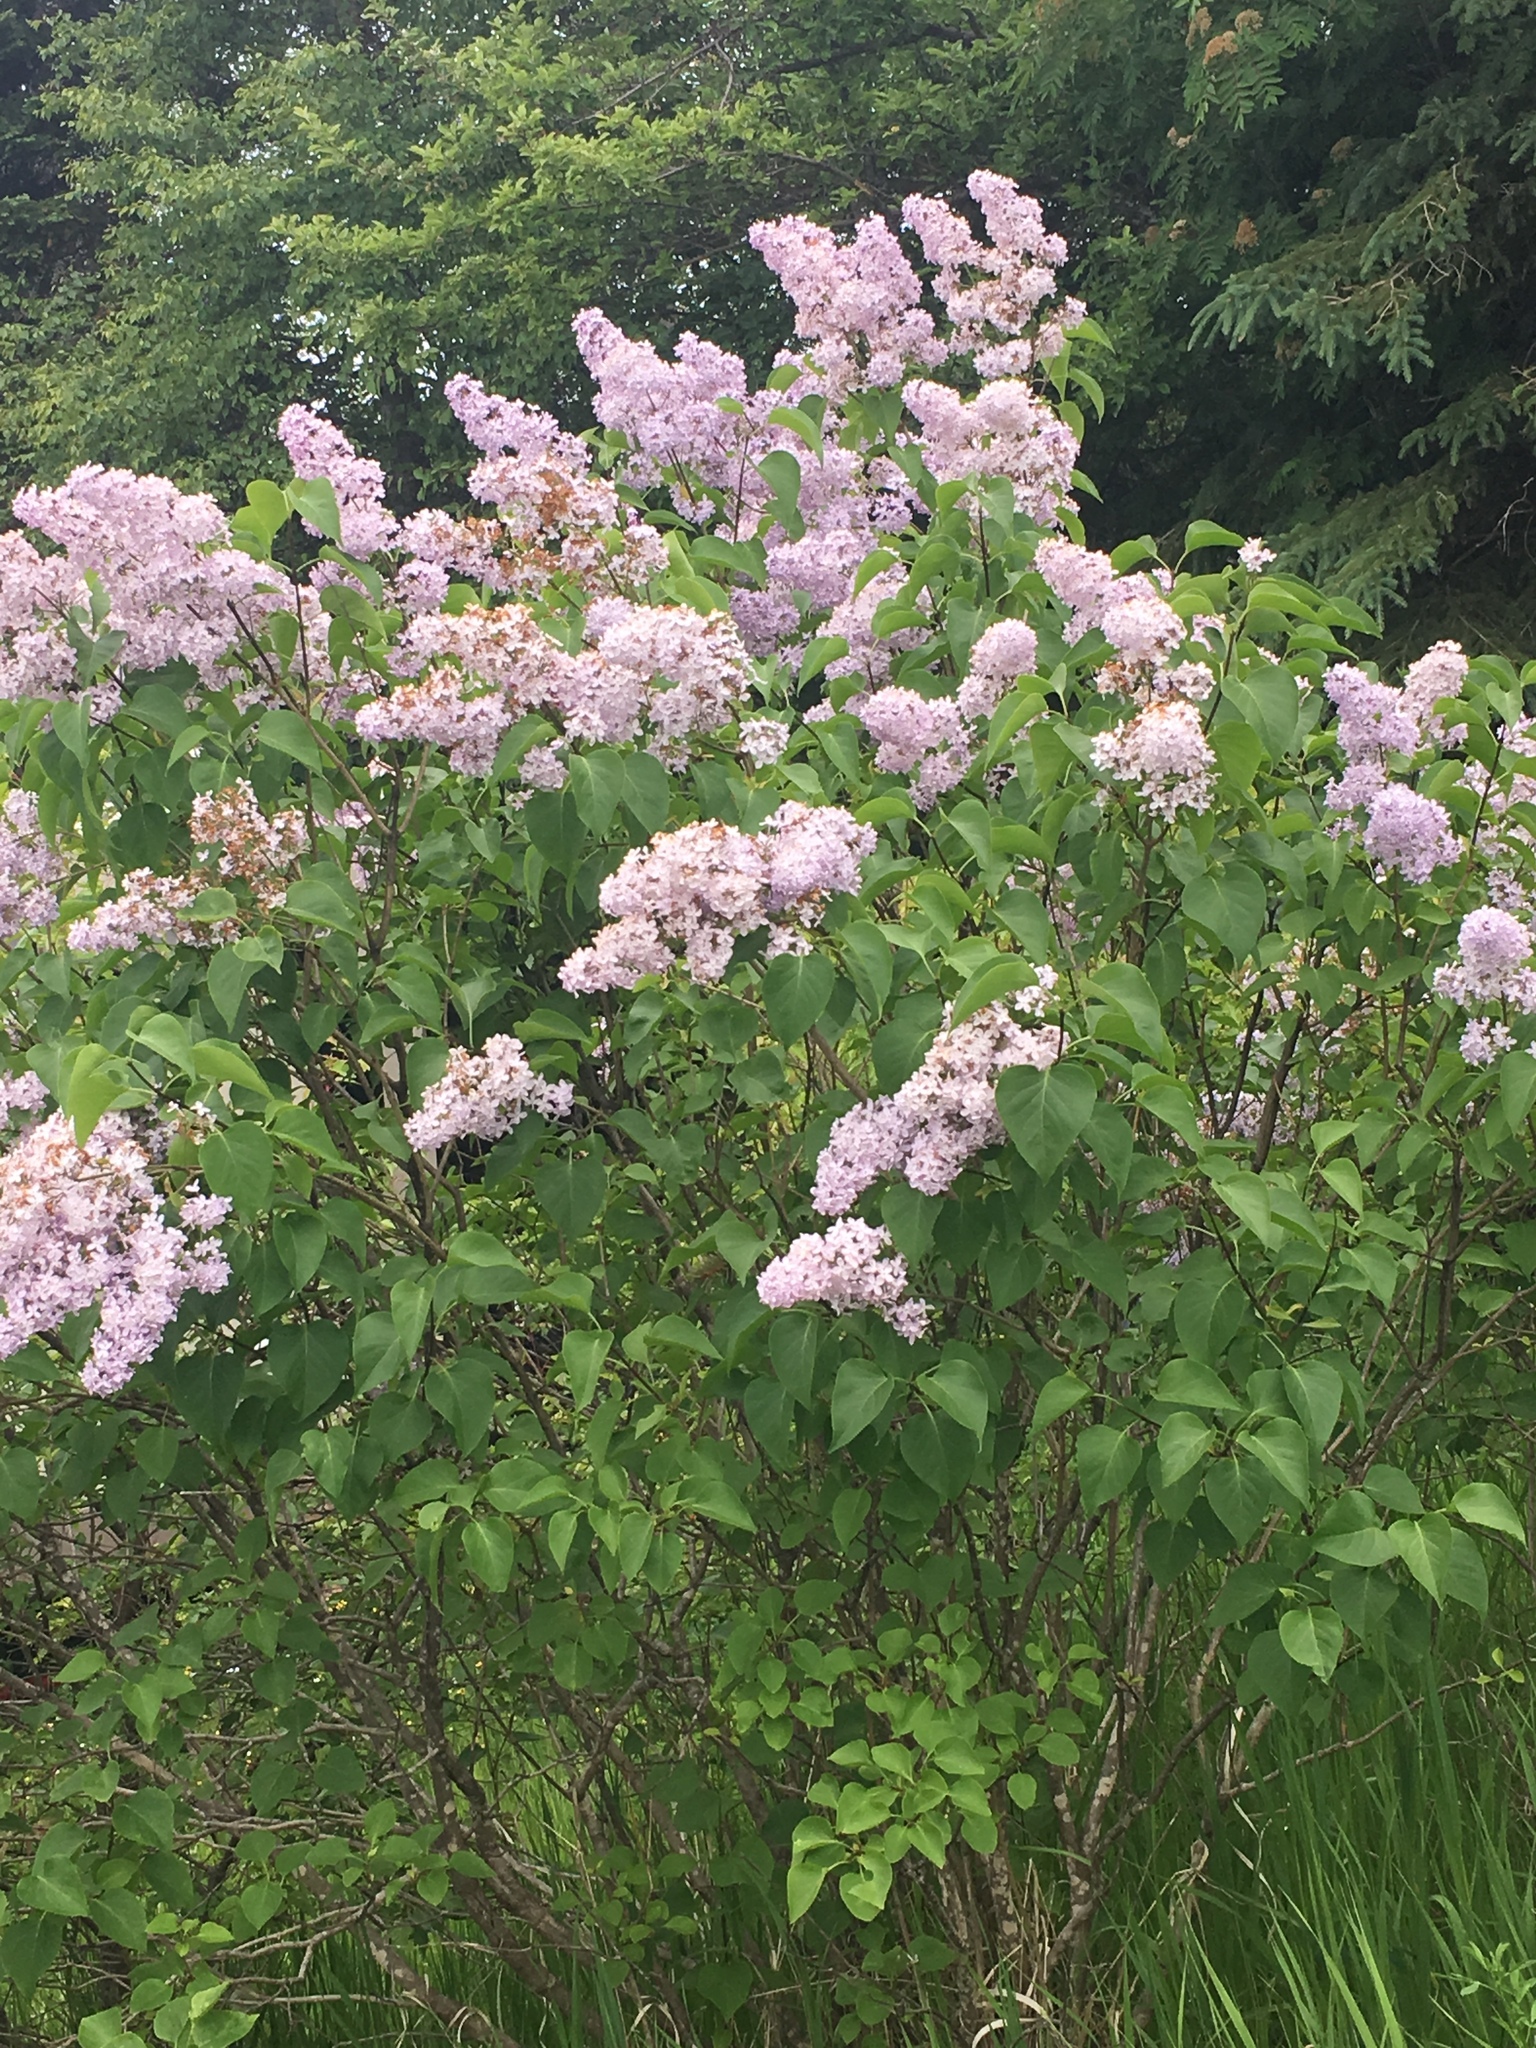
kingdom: Plantae
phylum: Tracheophyta
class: Magnoliopsida
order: Lamiales
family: Oleaceae
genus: Syringa
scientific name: Syringa vulgaris
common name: Common lilac
